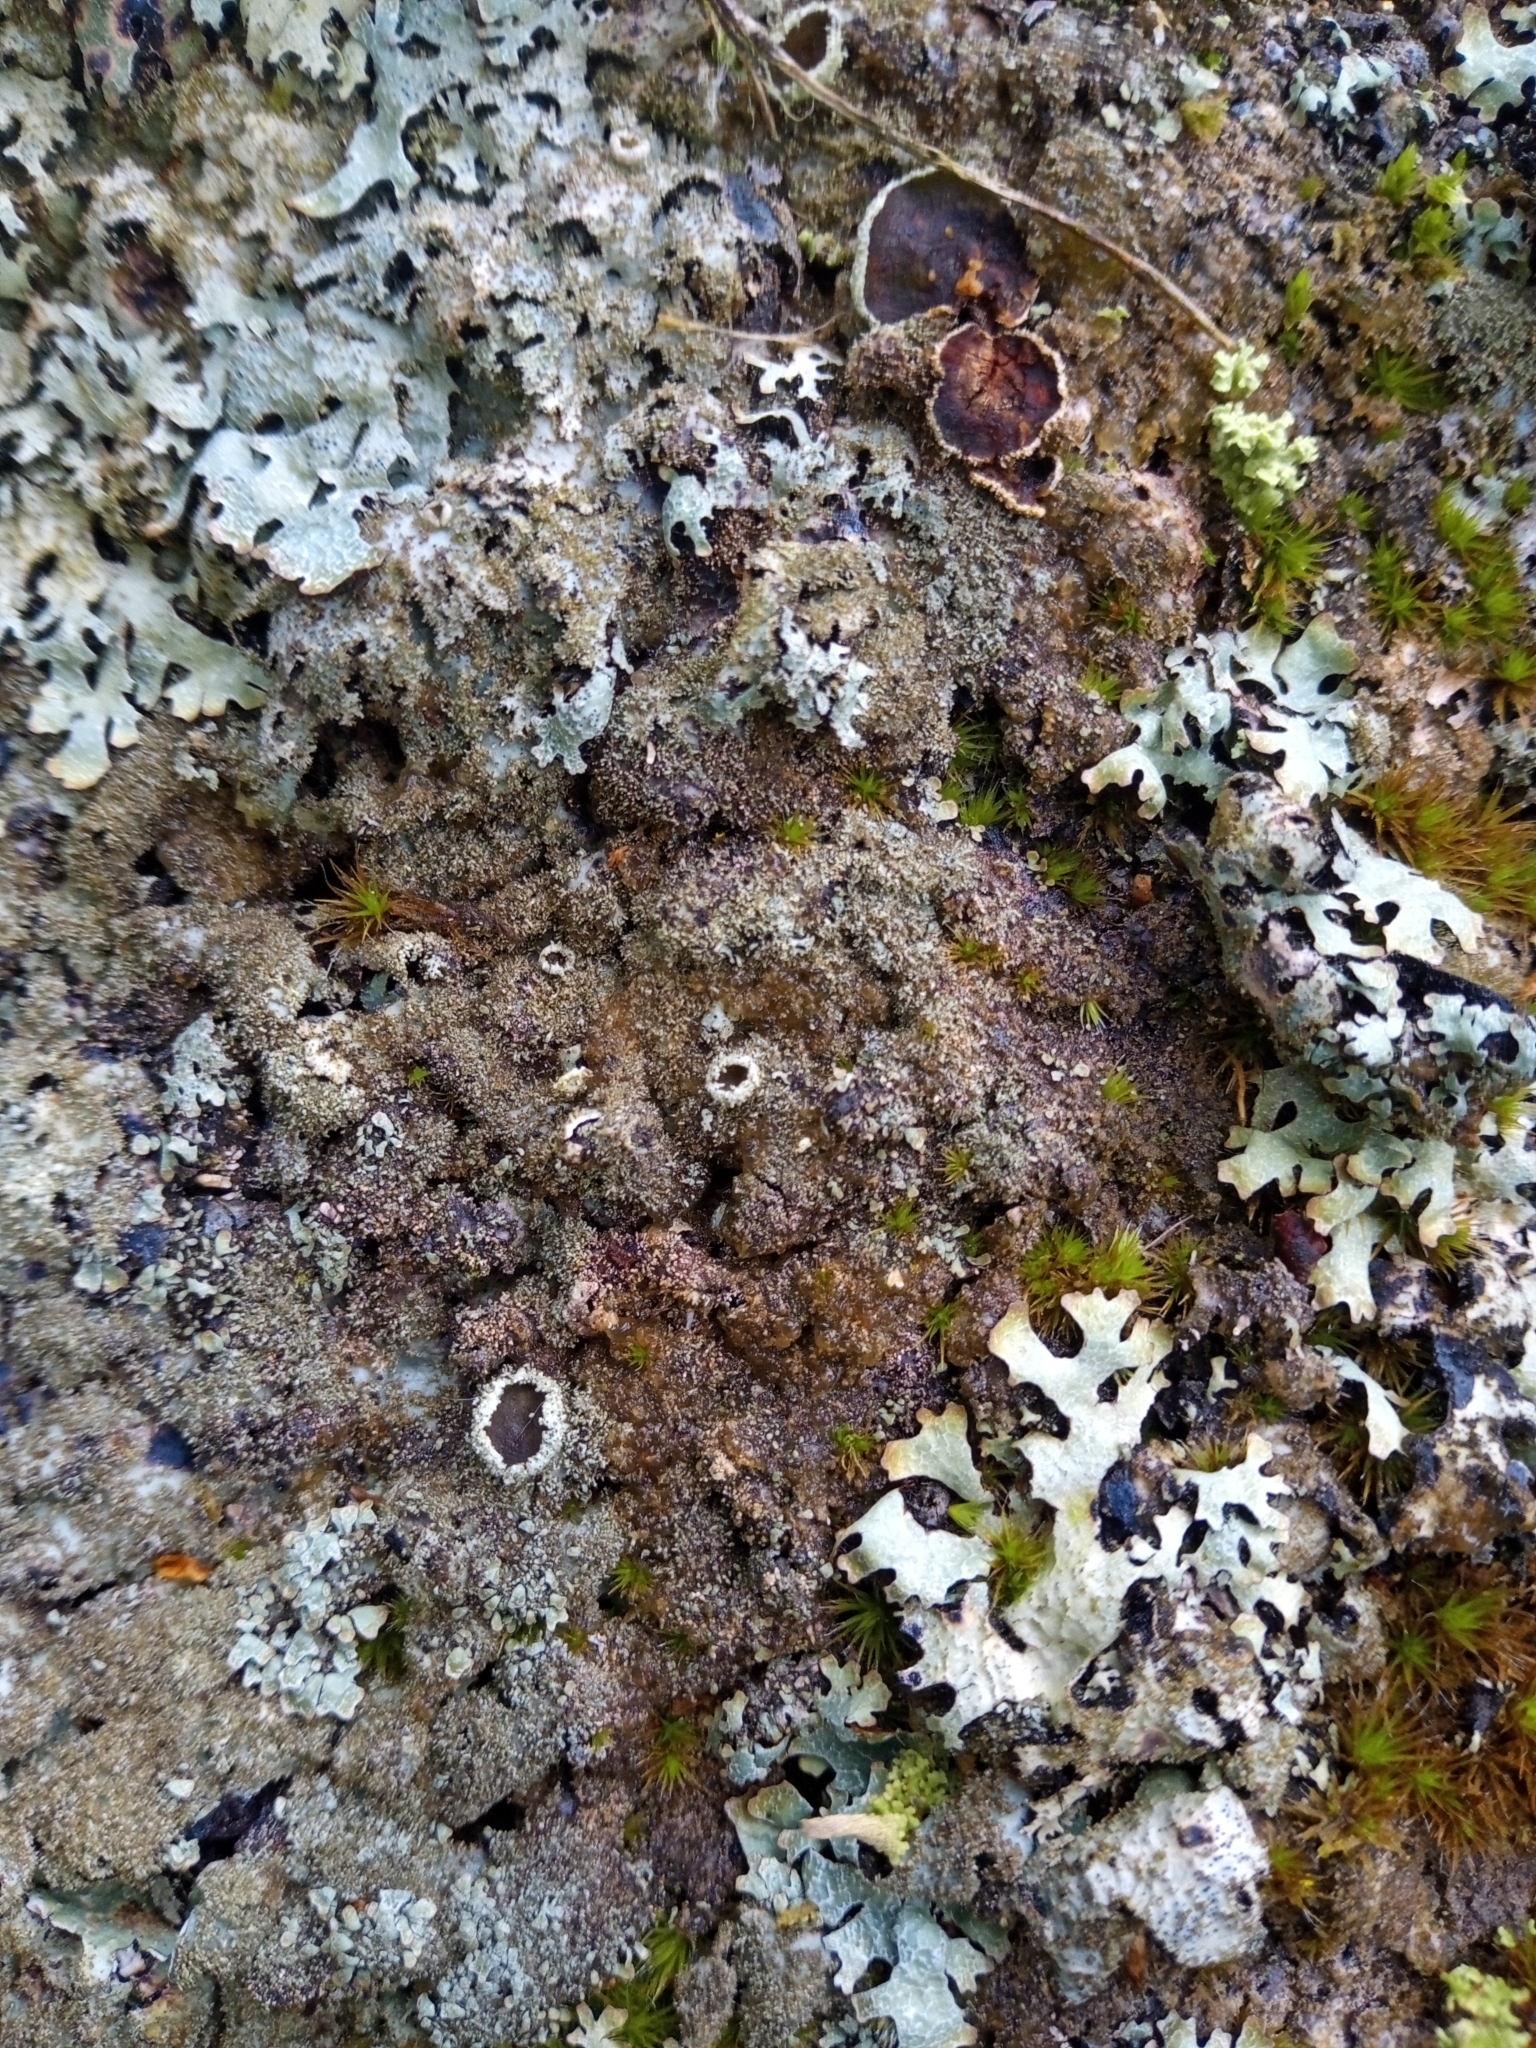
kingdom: Fungi
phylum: Ascomycota
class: Lecanoromycetes
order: Lecanorales
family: Parmeliaceae
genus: Parmelia
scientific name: Parmelia saxatilis
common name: Salted shield lichen
